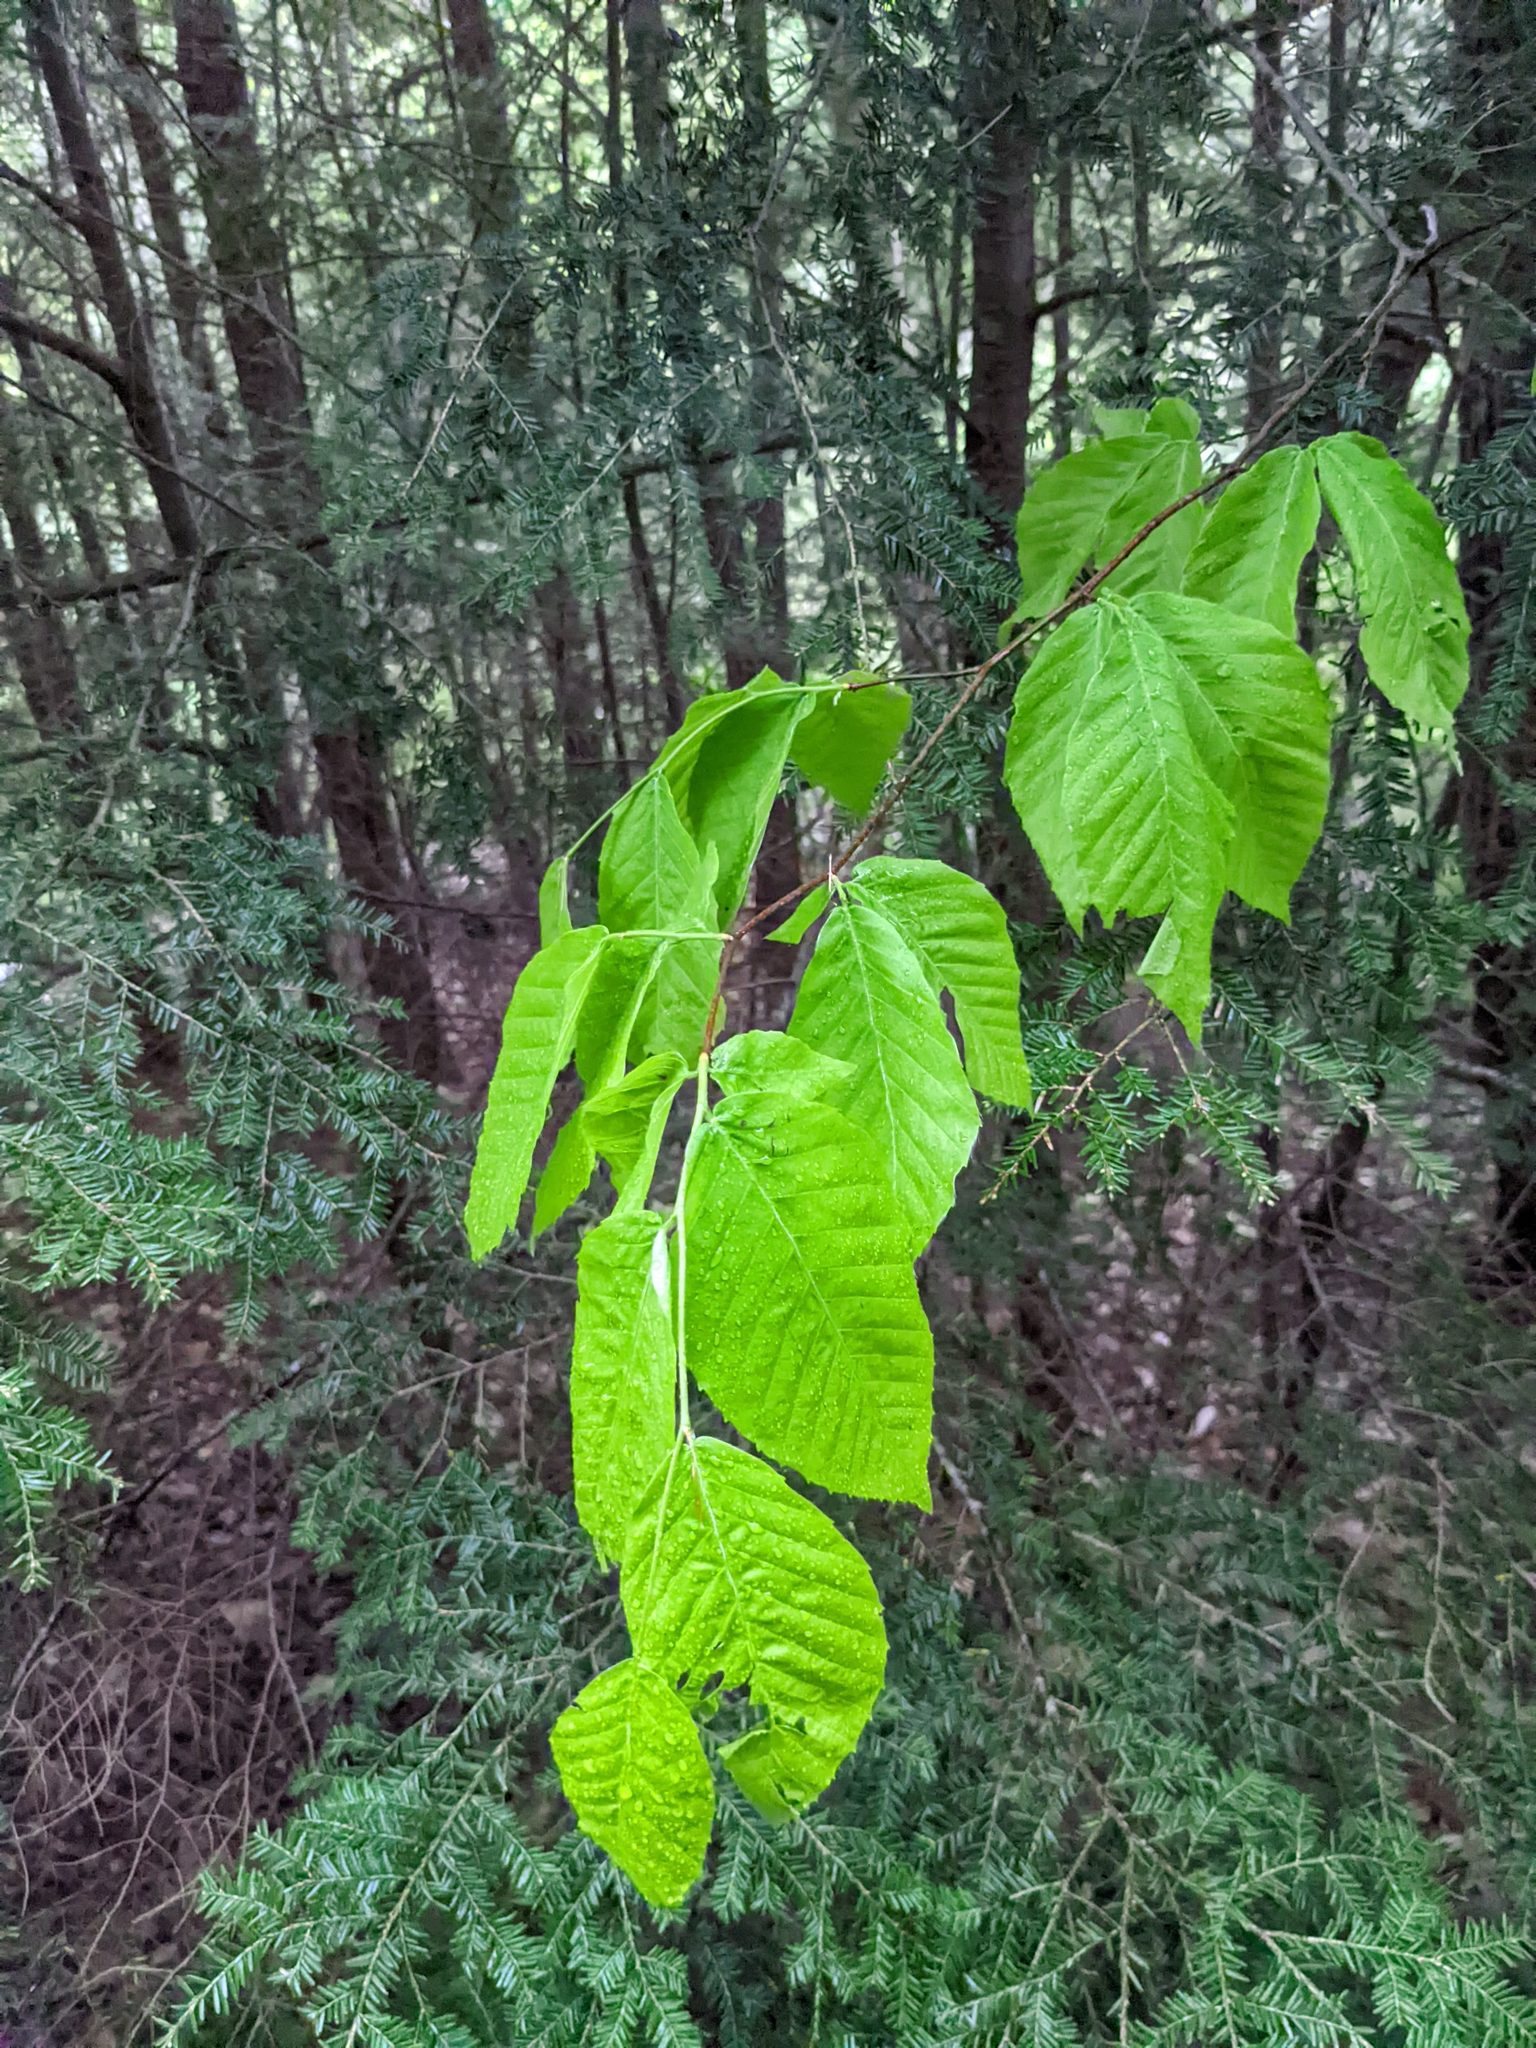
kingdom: Plantae
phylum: Tracheophyta
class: Magnoliopsida
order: Fagales
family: Fagaceae
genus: Fagus
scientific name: Fagus grandifolia
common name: American beech
